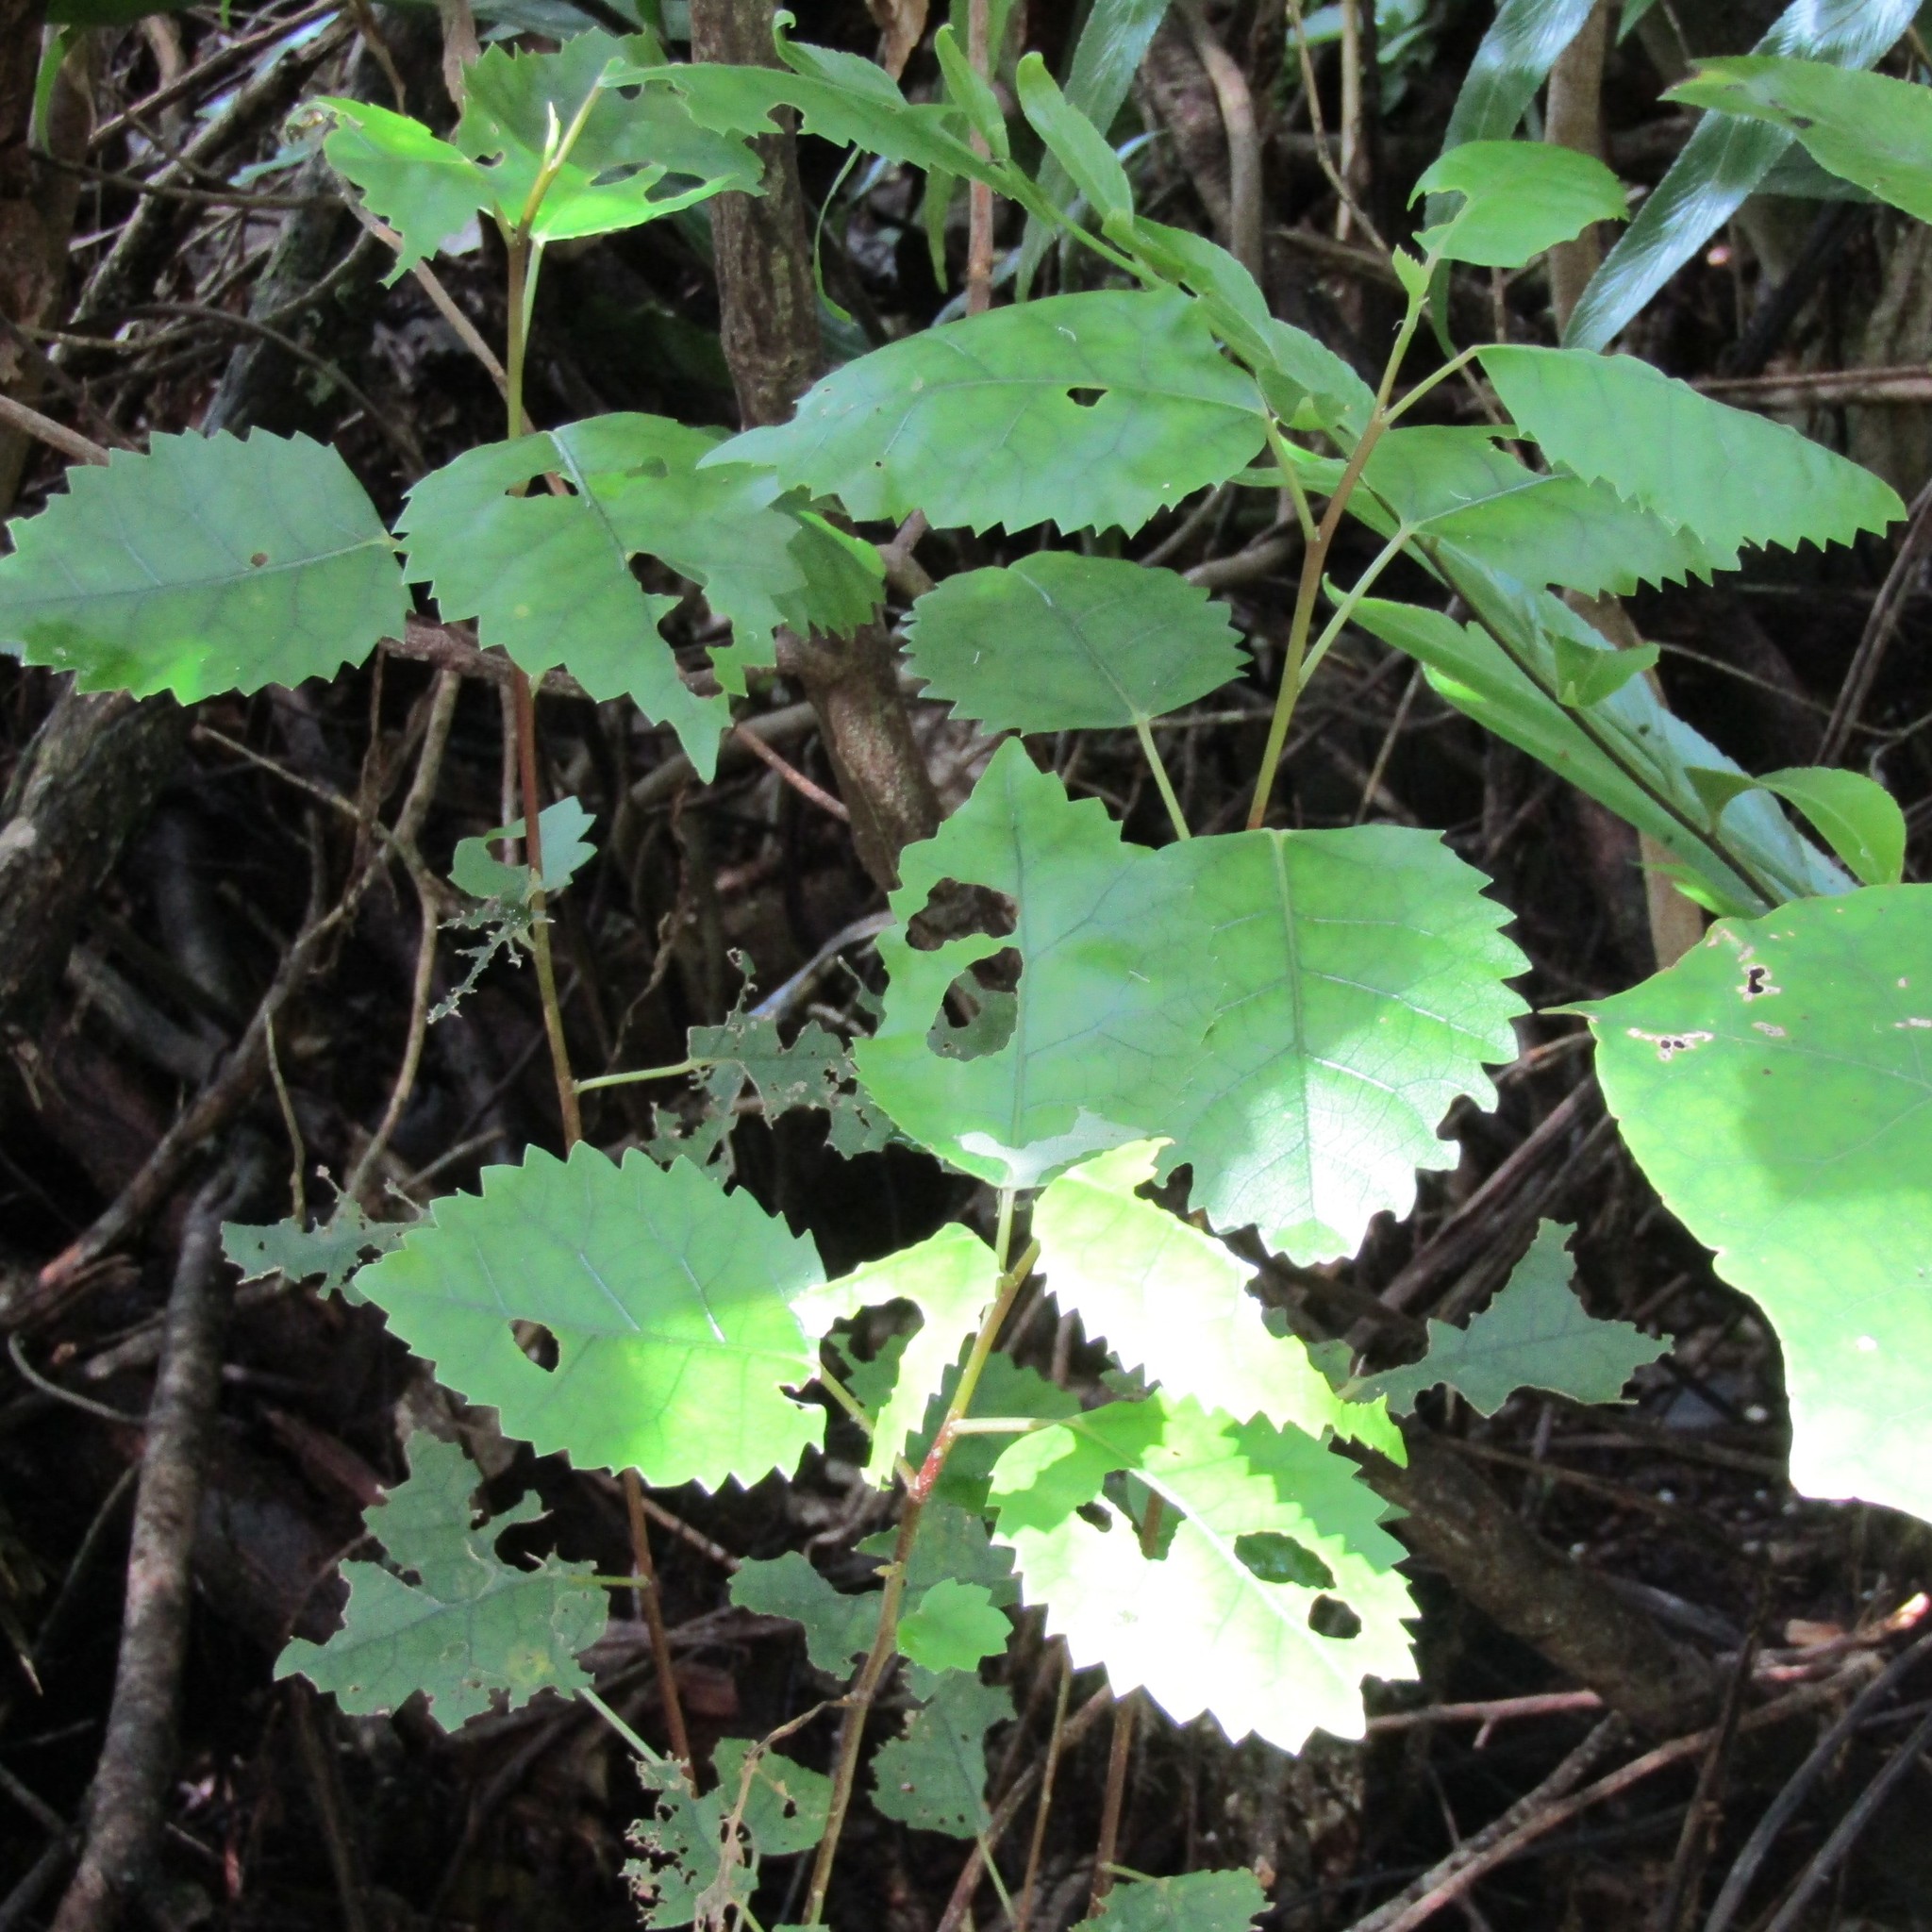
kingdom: Plantae
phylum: Tracheophyta
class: Magnoliopsida
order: Malvales
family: Malvaceae
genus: Hoheria
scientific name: Hoheria populnea
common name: Lacebark
